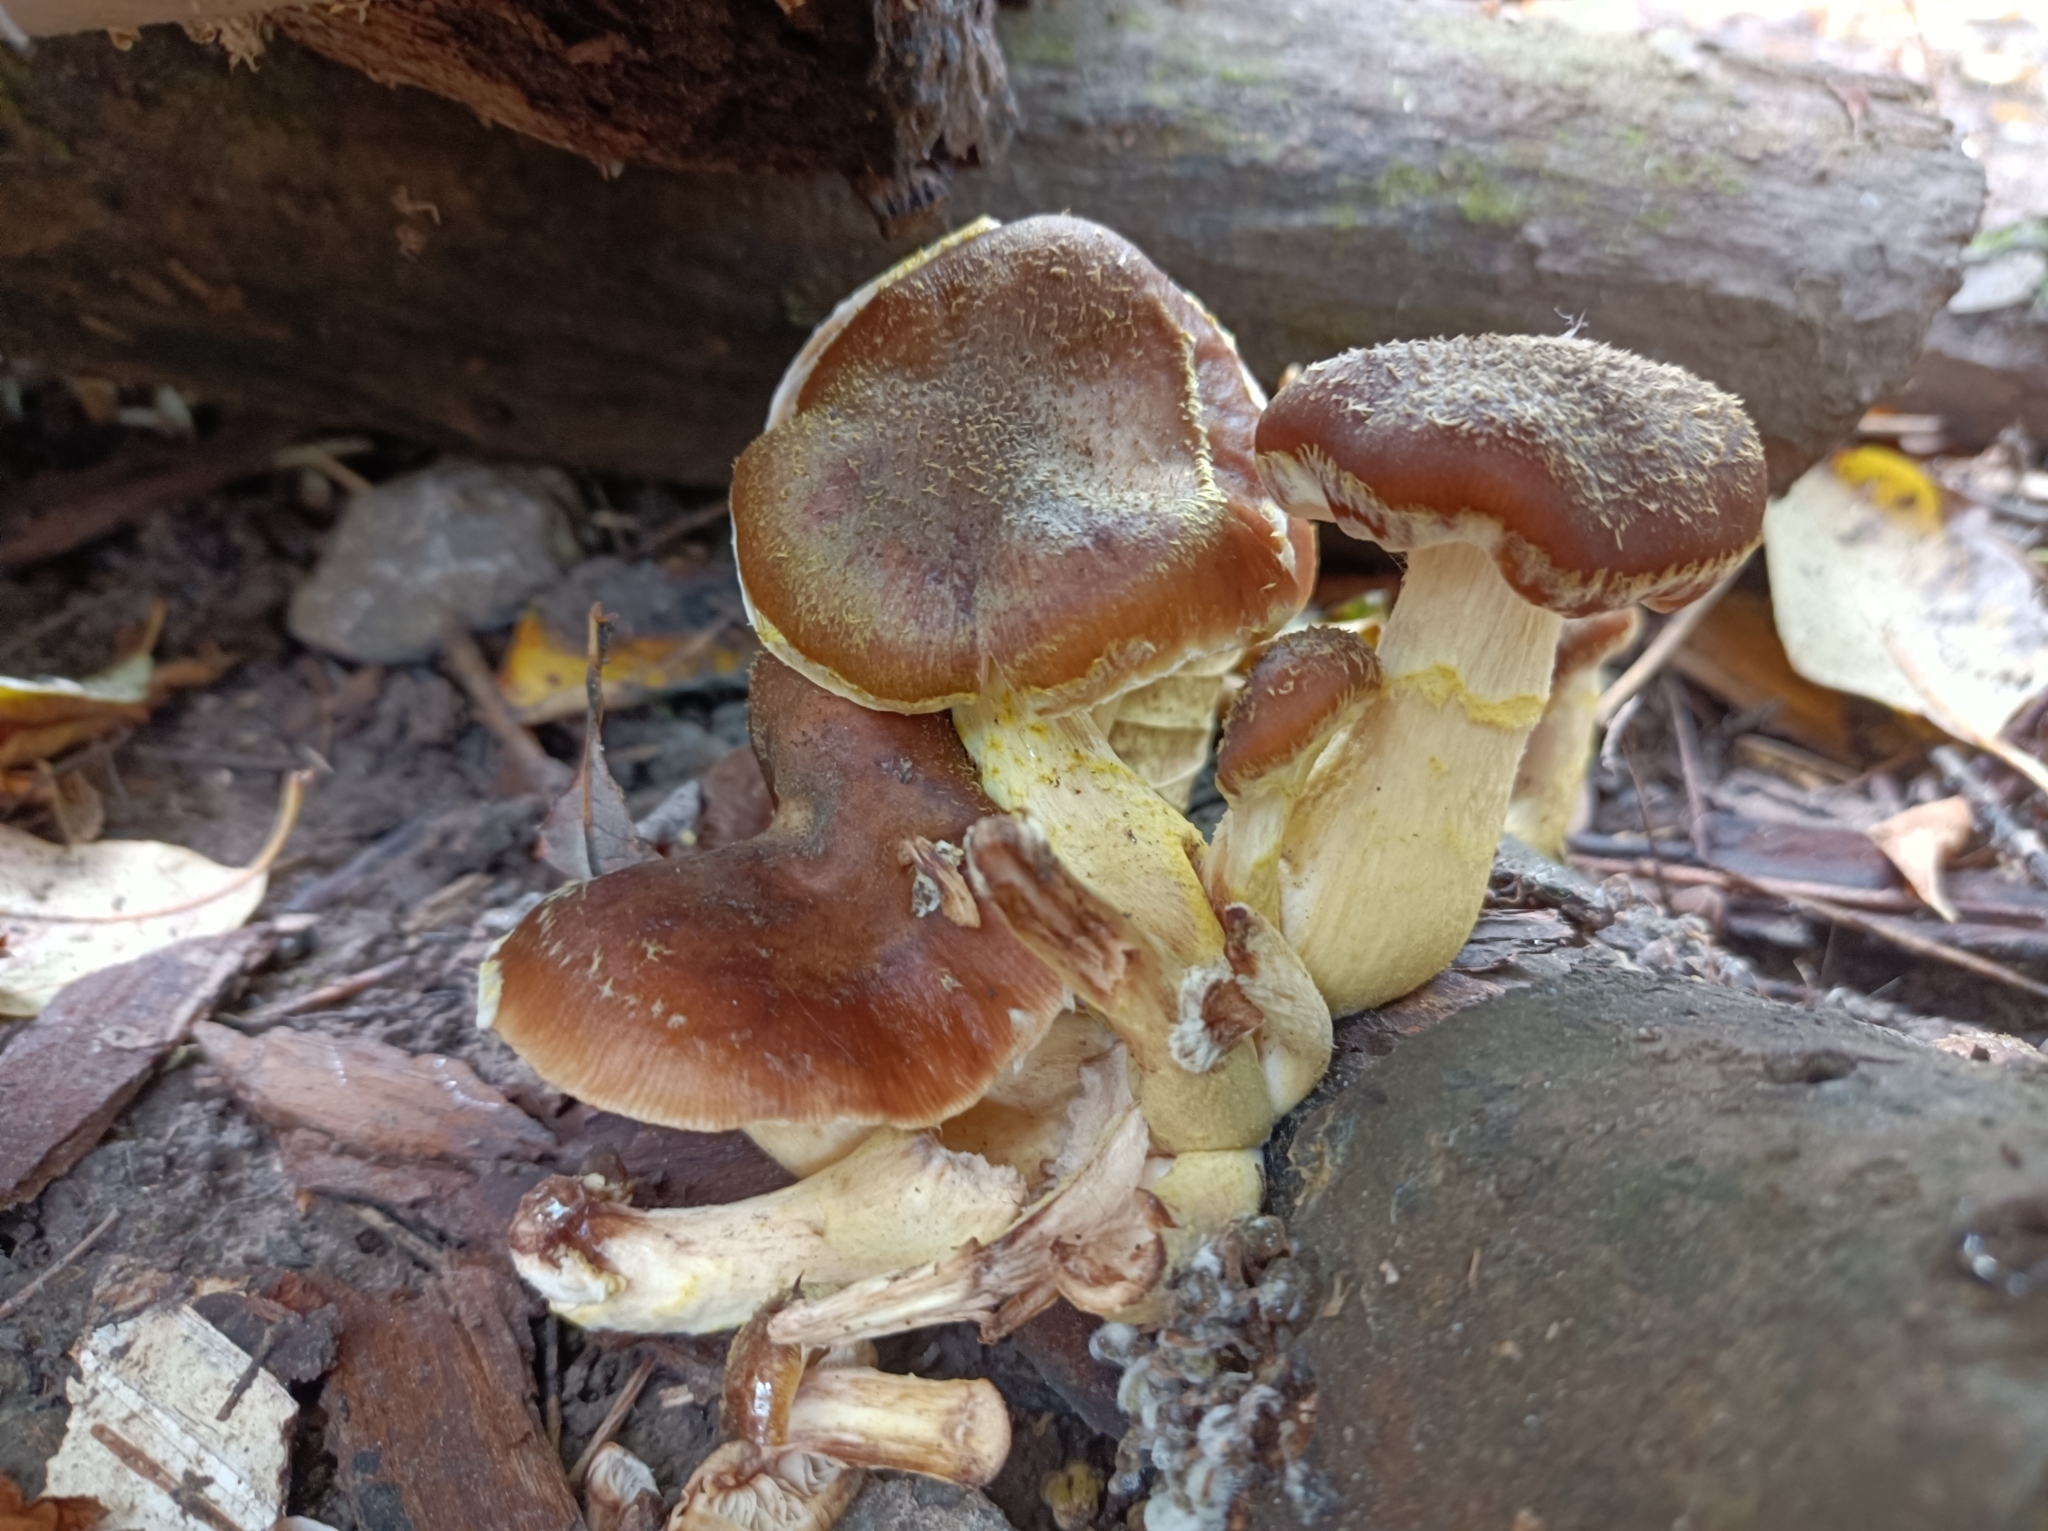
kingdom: Fungi
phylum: Basidiomycota
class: Agaricomycetes
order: Agaricales
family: Physalacriaceae
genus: Armillaria
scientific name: Armillaria gallica
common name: Bulbous honey fungus
